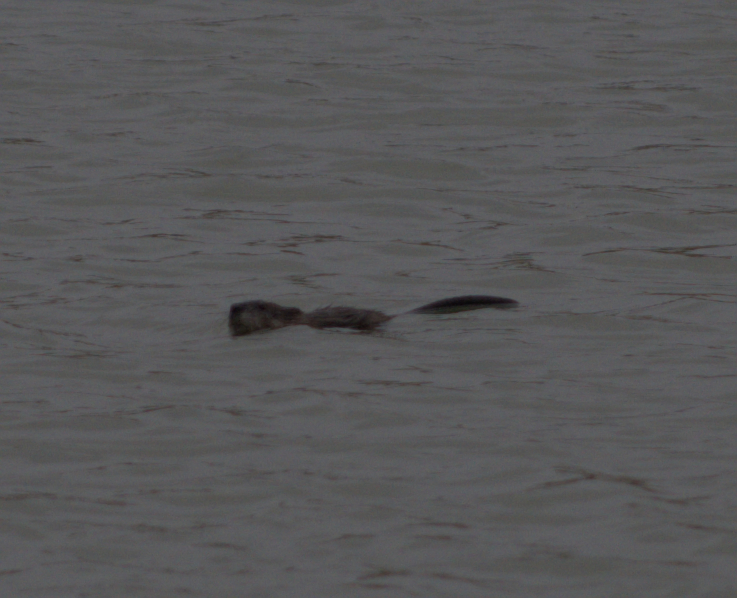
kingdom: Animalia
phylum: Chordata
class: Mammalia
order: Rodentia
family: Cricetidae
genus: Ondatra
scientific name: Ondatra zibethicus
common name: Muskrat
